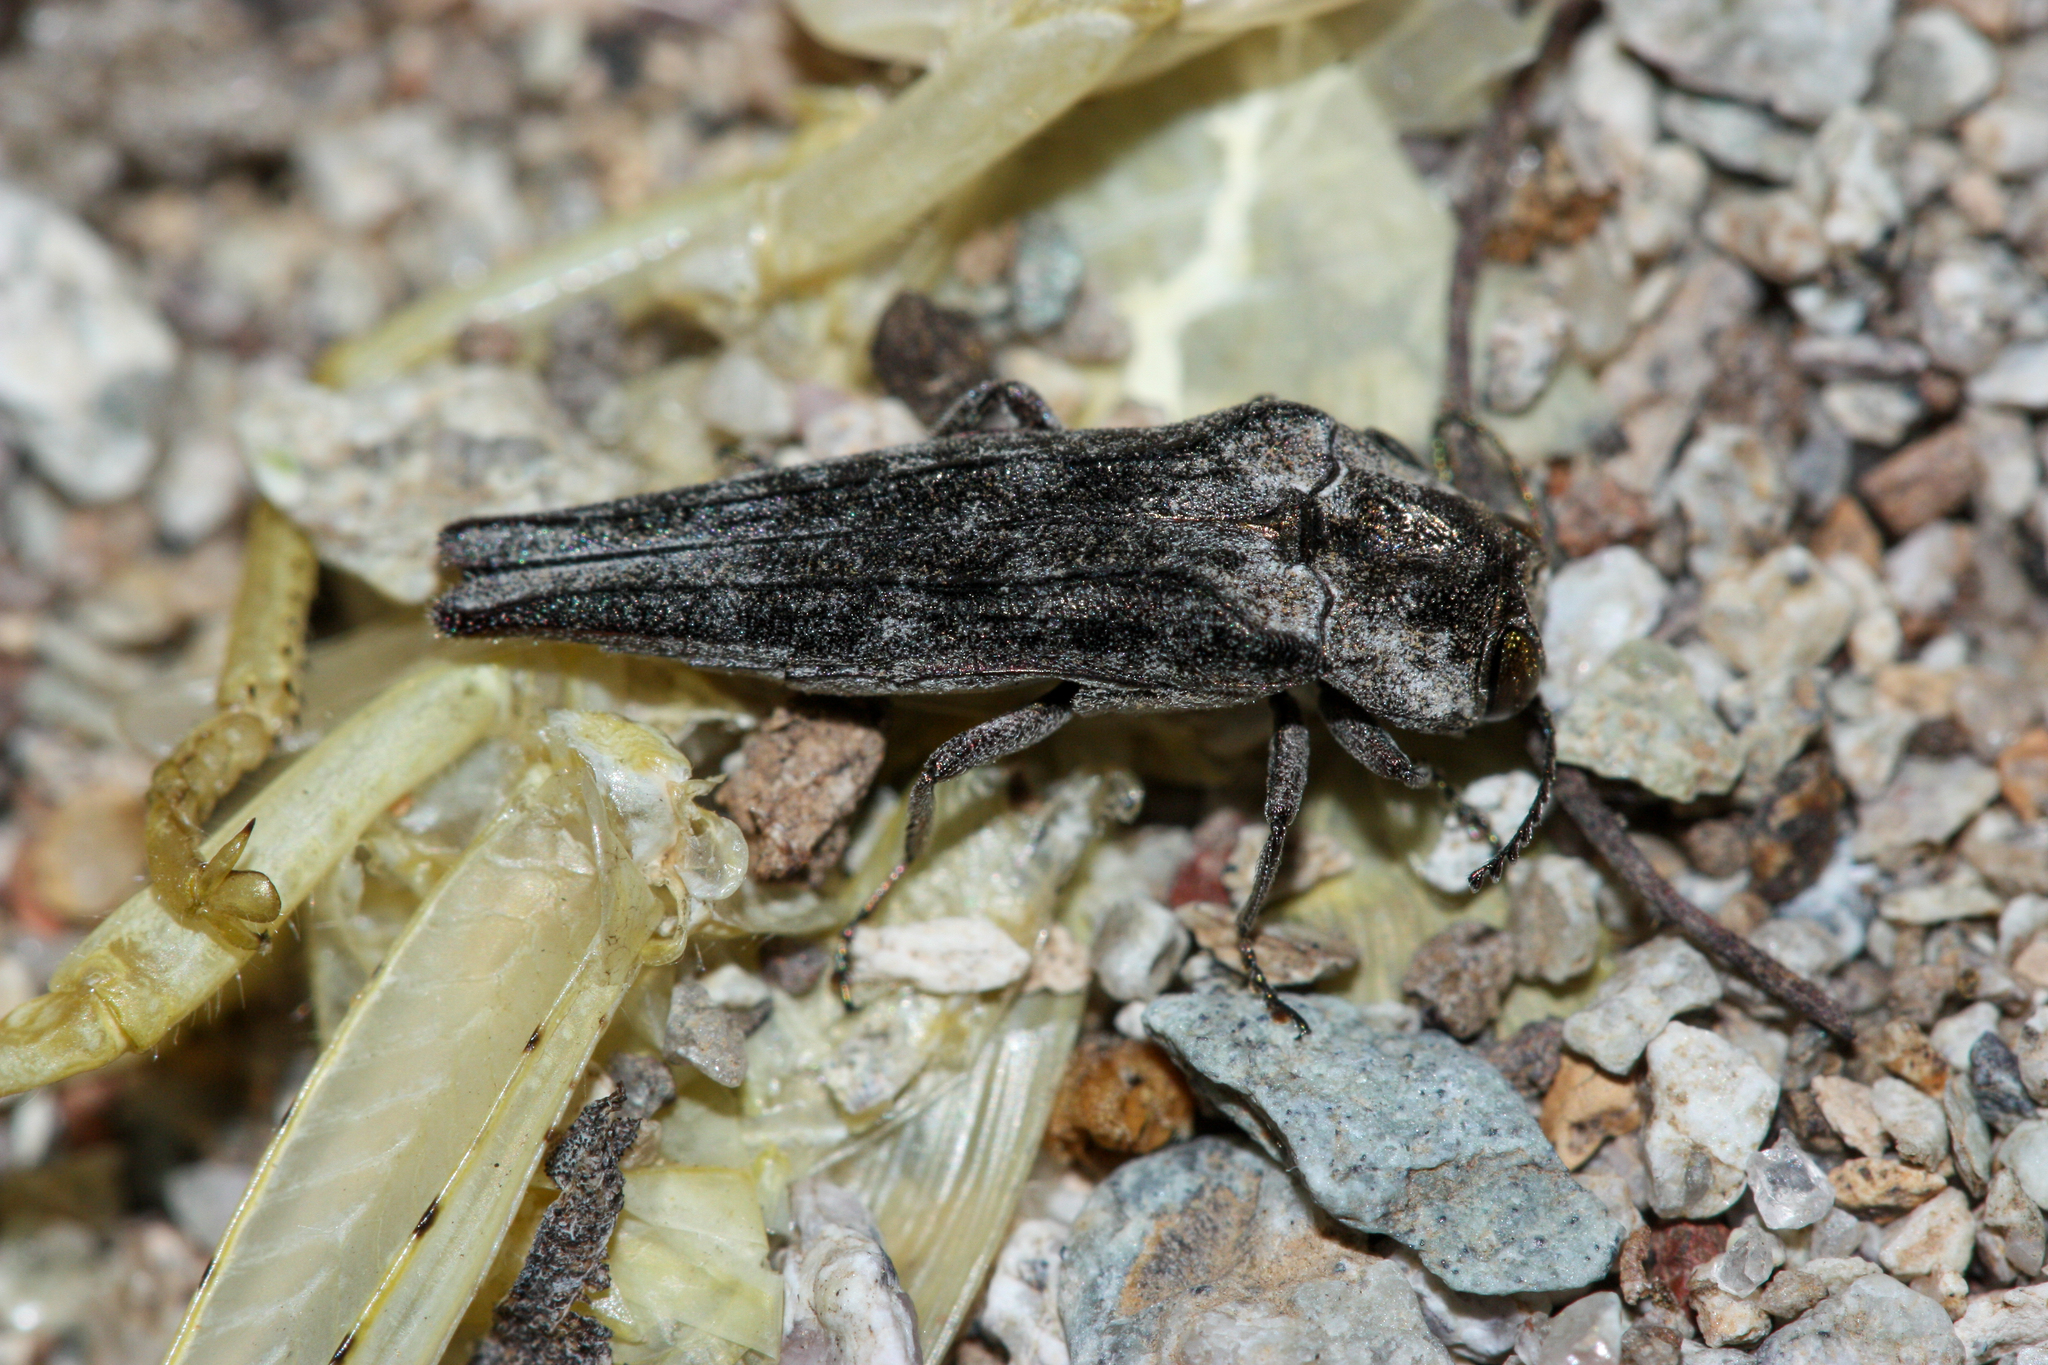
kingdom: Animalia
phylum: Arthropoda
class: Insecta
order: Coleoptera
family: Buprestidae
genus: Agrilus
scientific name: Agrilus cavifrons
